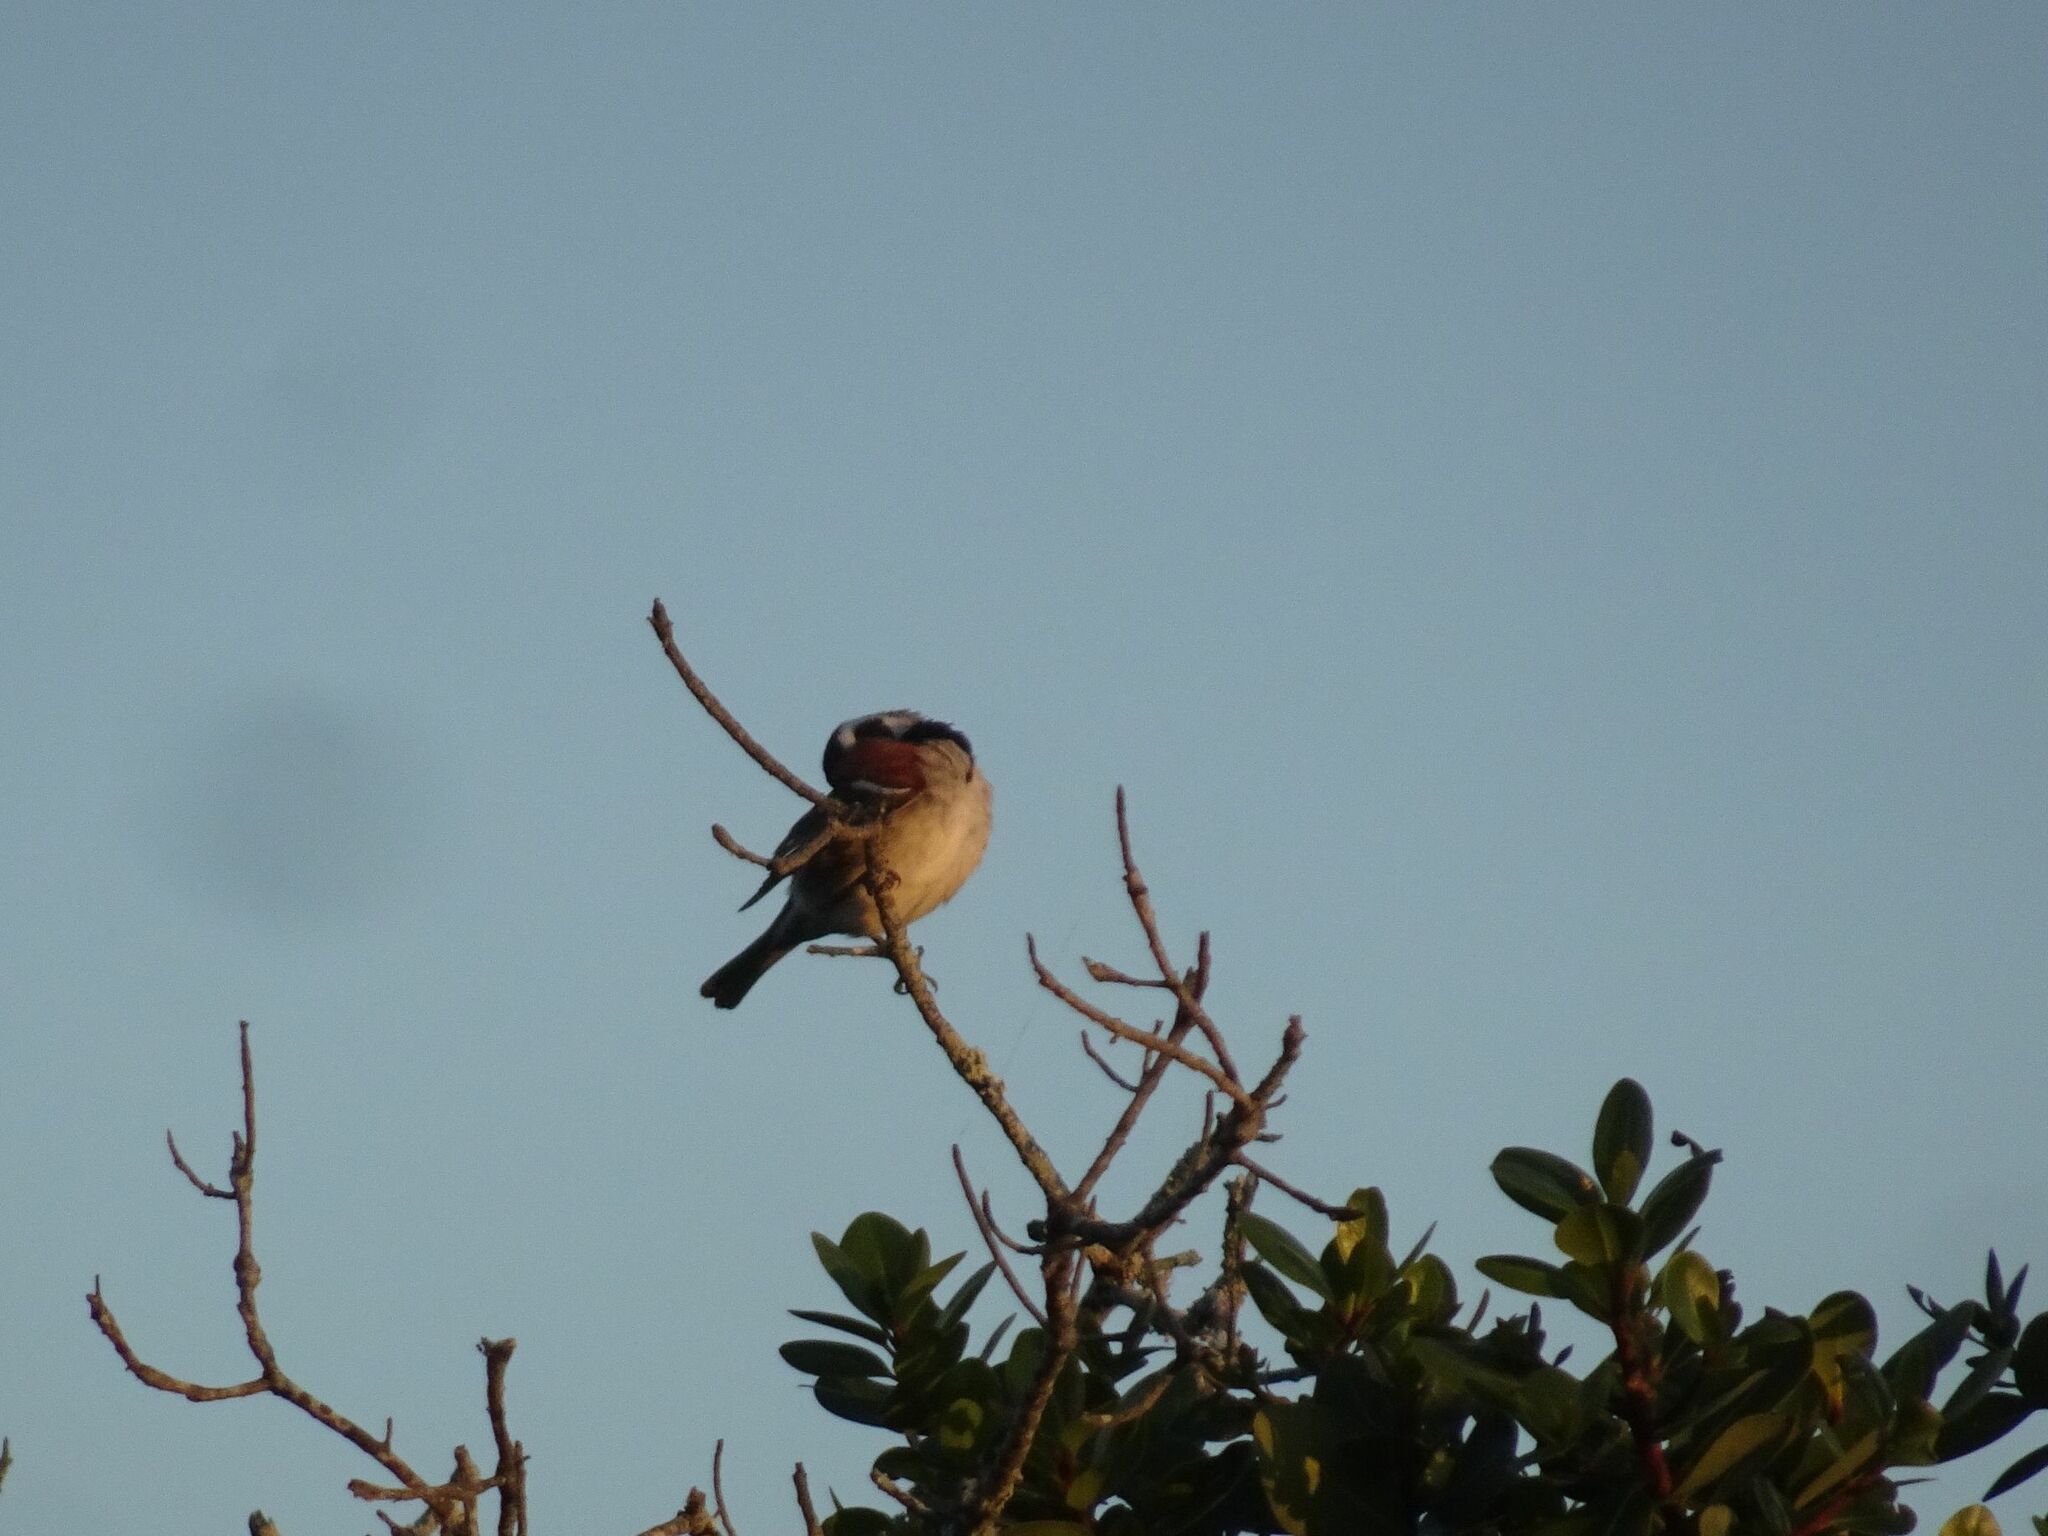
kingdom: Animalia
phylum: Chordata
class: Aves
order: Passeriformes
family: Passeridae
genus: Passer
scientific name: Passer melanurus
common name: Cape sparrow
